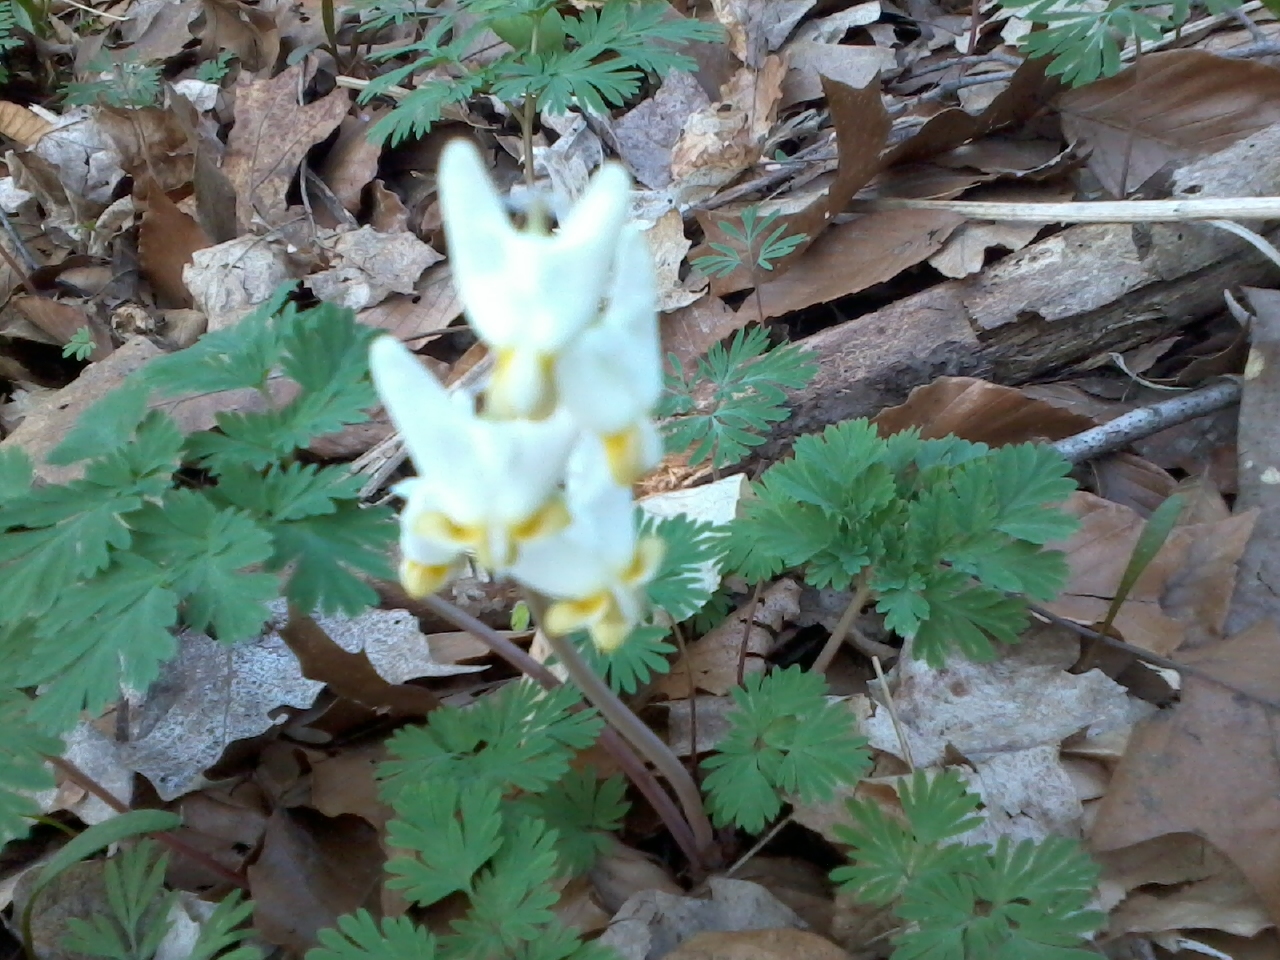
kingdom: Plantae
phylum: Tracheophyta
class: Magnoliopsida
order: Ranunculales
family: Papaveraceae
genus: Dicentra
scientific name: Dicentra cucullaria
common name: Dutchman's breeches
